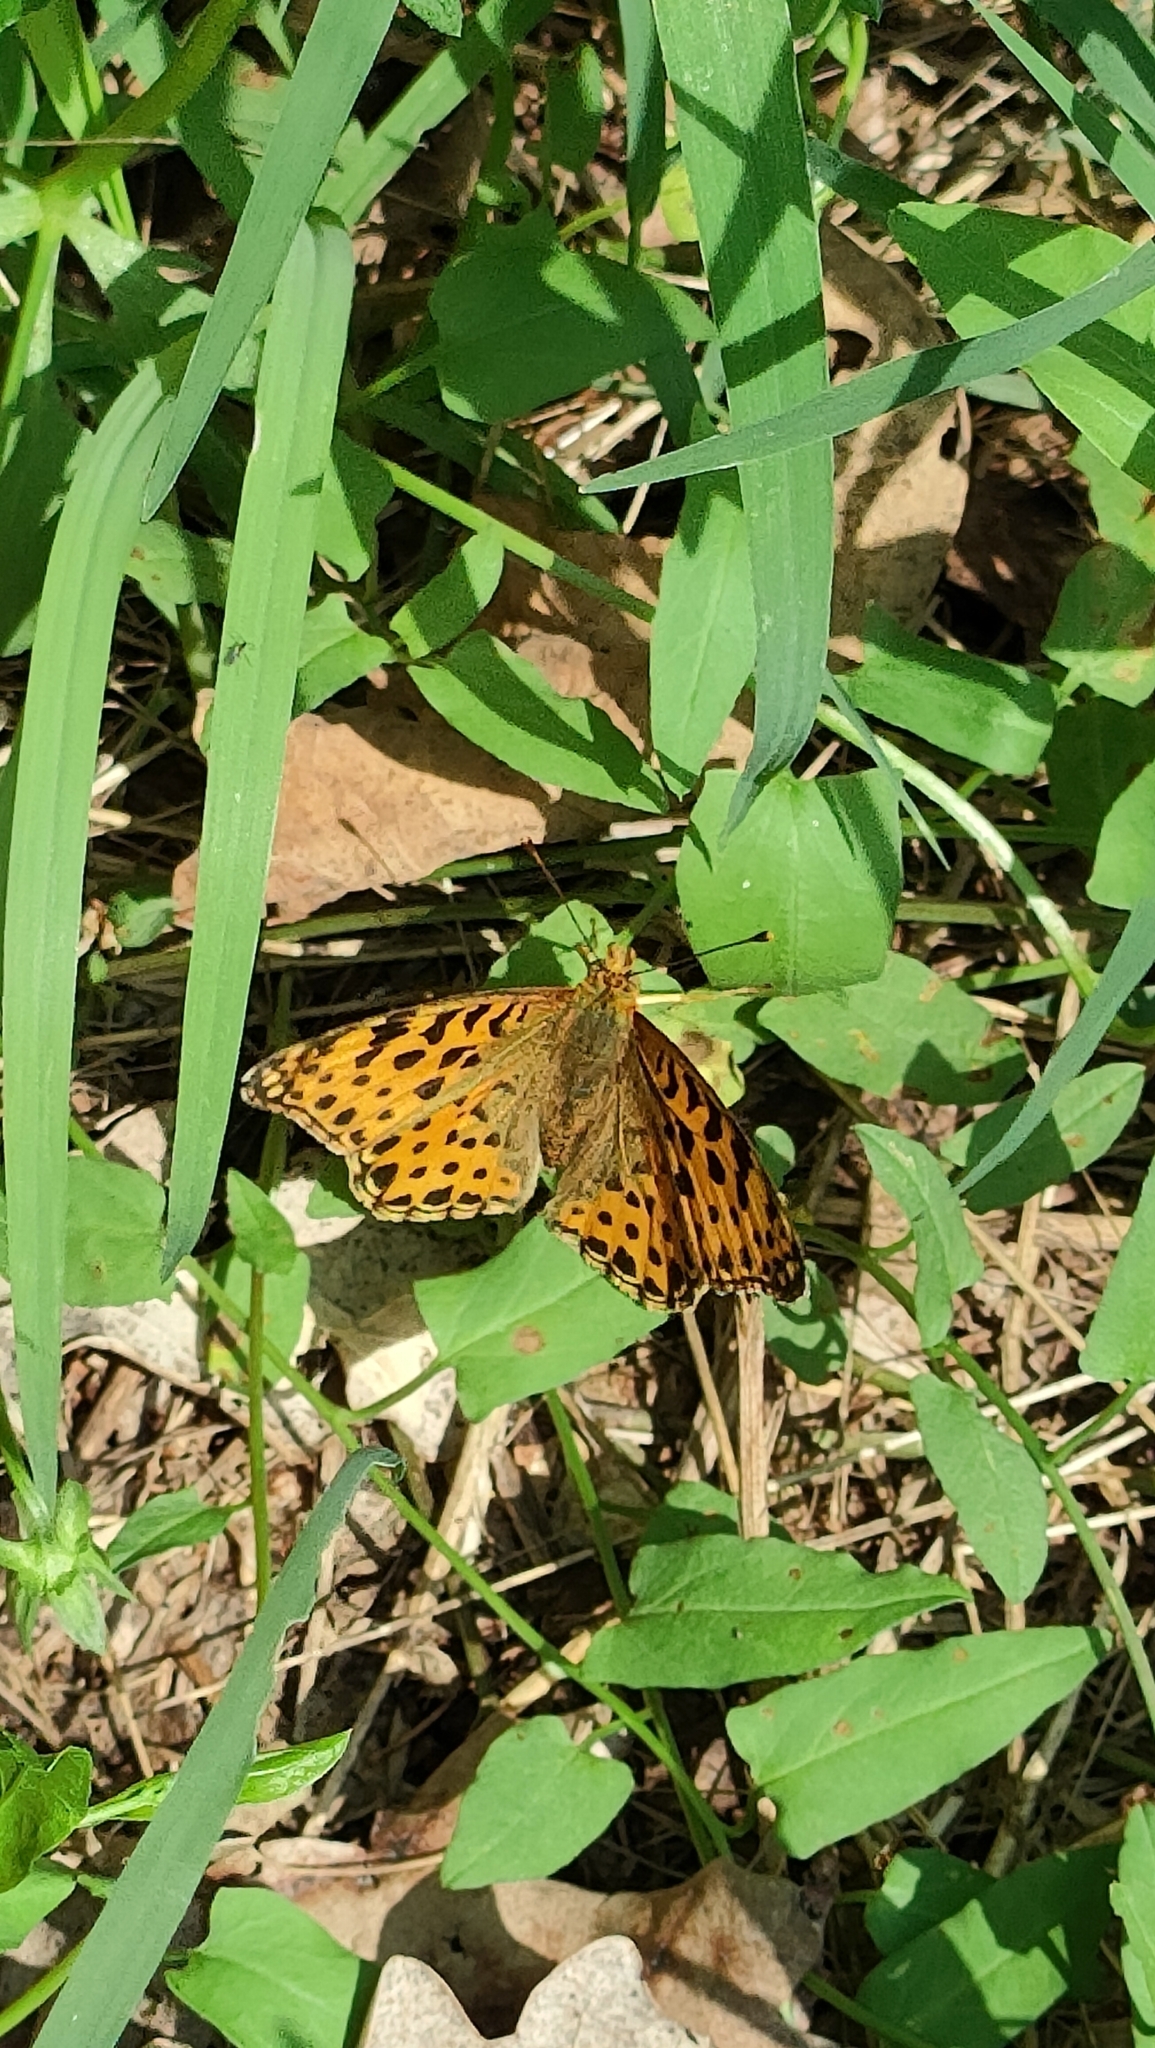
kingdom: Animalia
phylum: Arthropoda
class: Insecta
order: Lepidoptera
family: Nymphalidae
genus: Issoria
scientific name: Issoria lathonia
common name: Queen of spain fritillary
